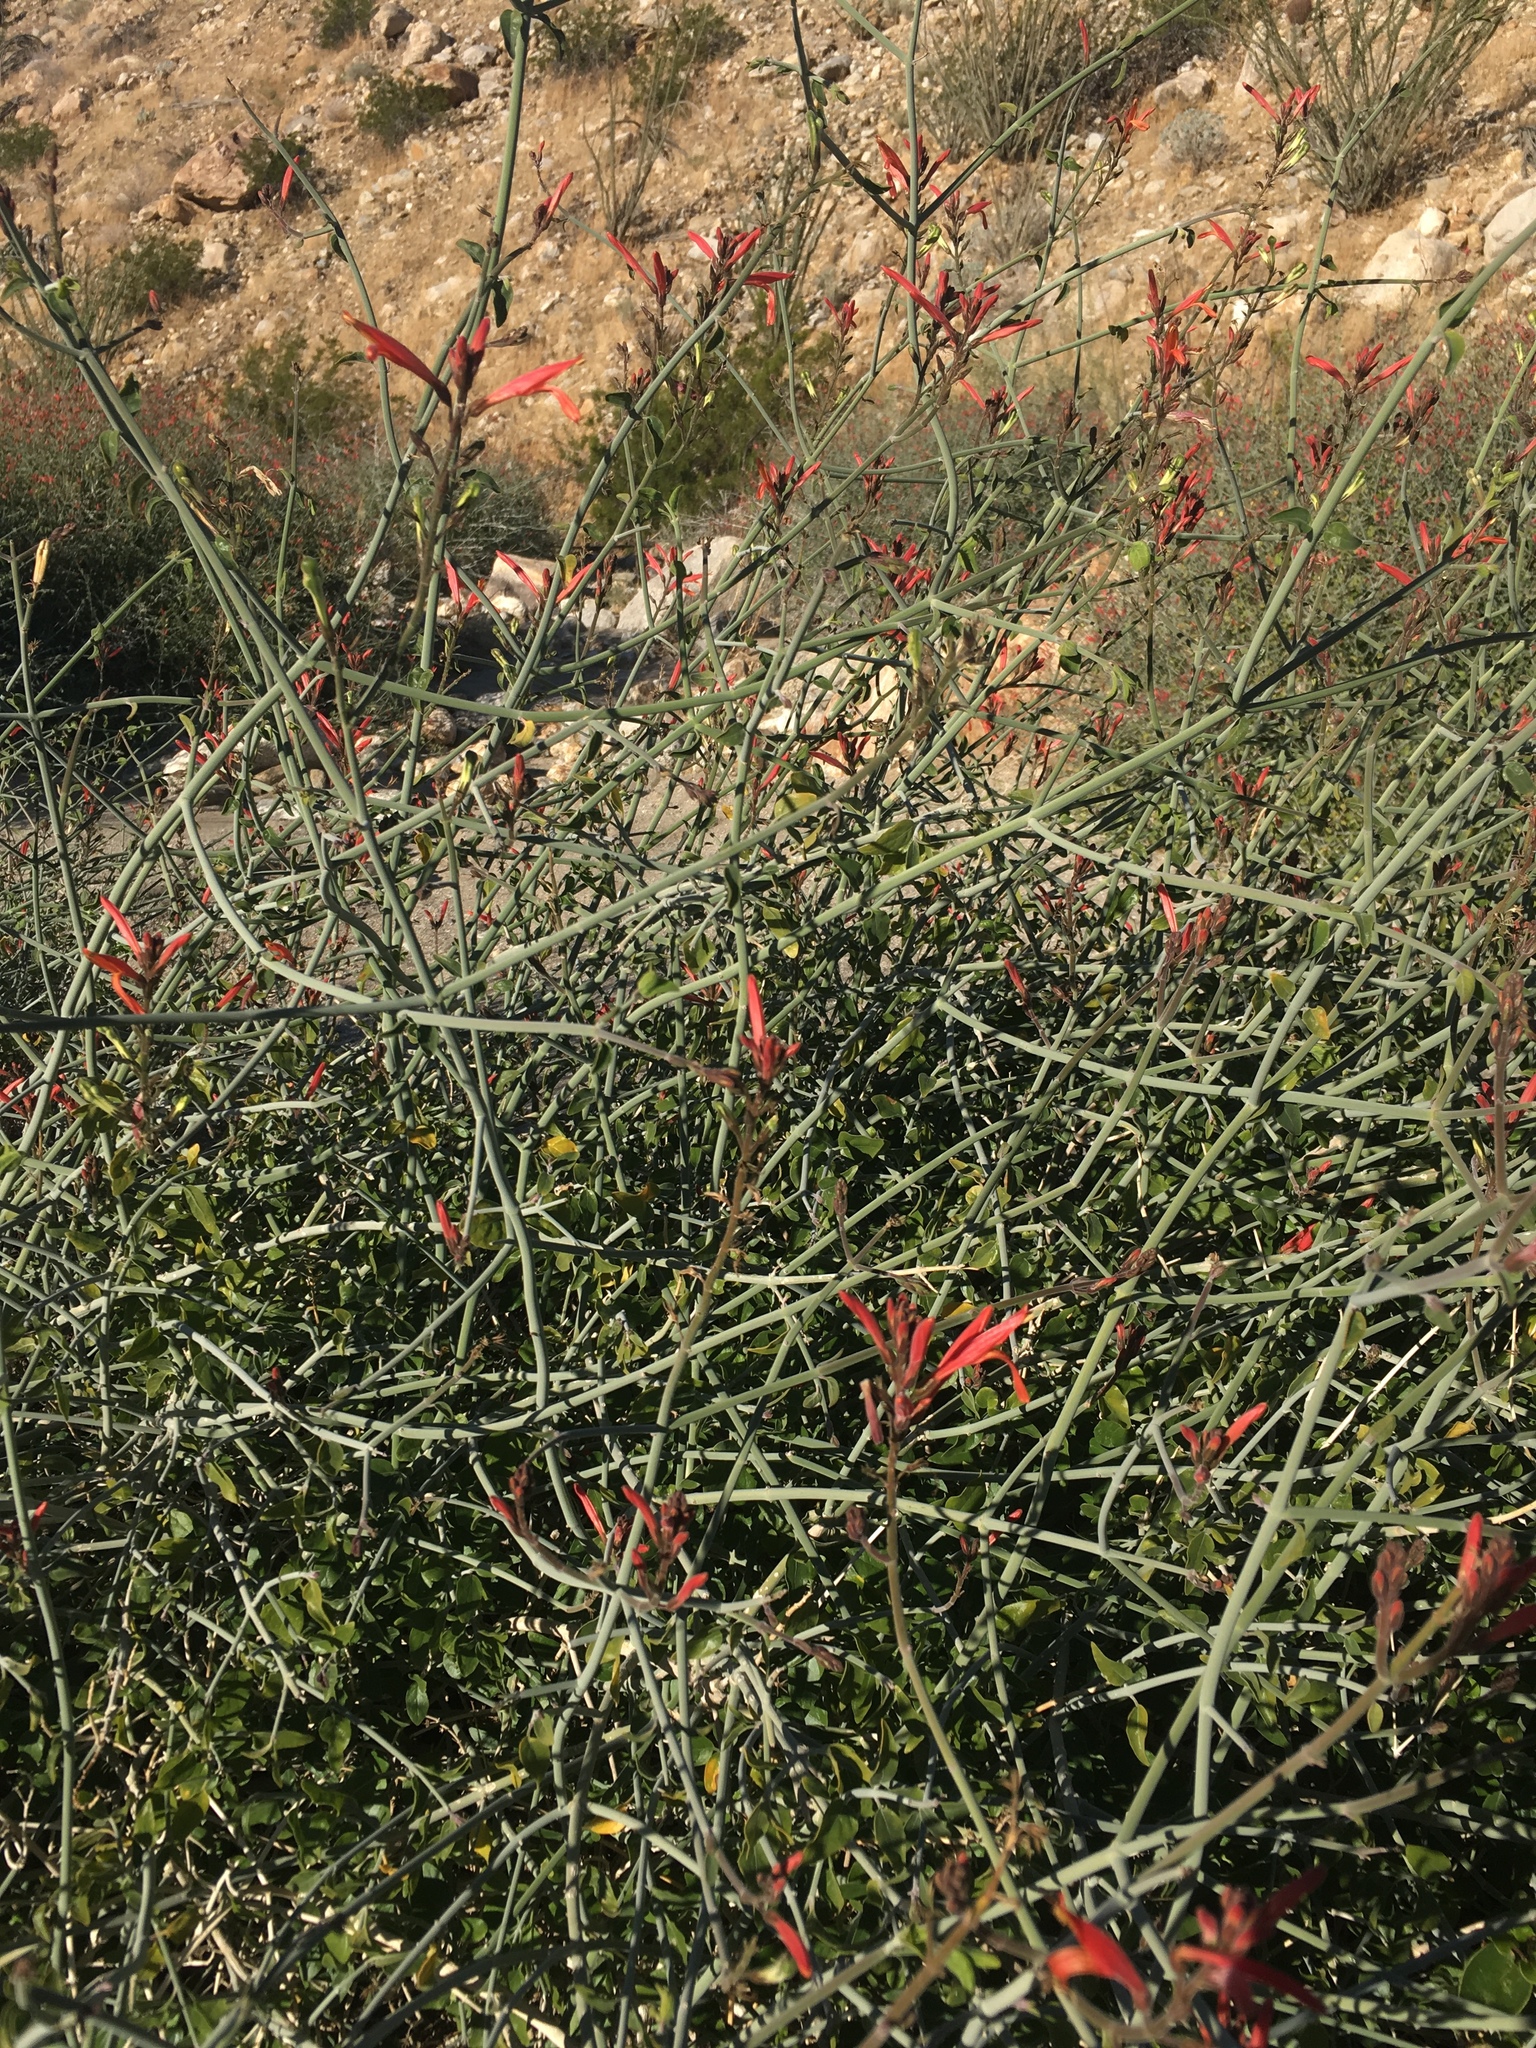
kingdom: Plantae
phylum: Tracheophyta
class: Magnoliopsida
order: Lamiales
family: Acanthaceae
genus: Justicia
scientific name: Justicia californica
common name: Chuparosa-honeysuckle
